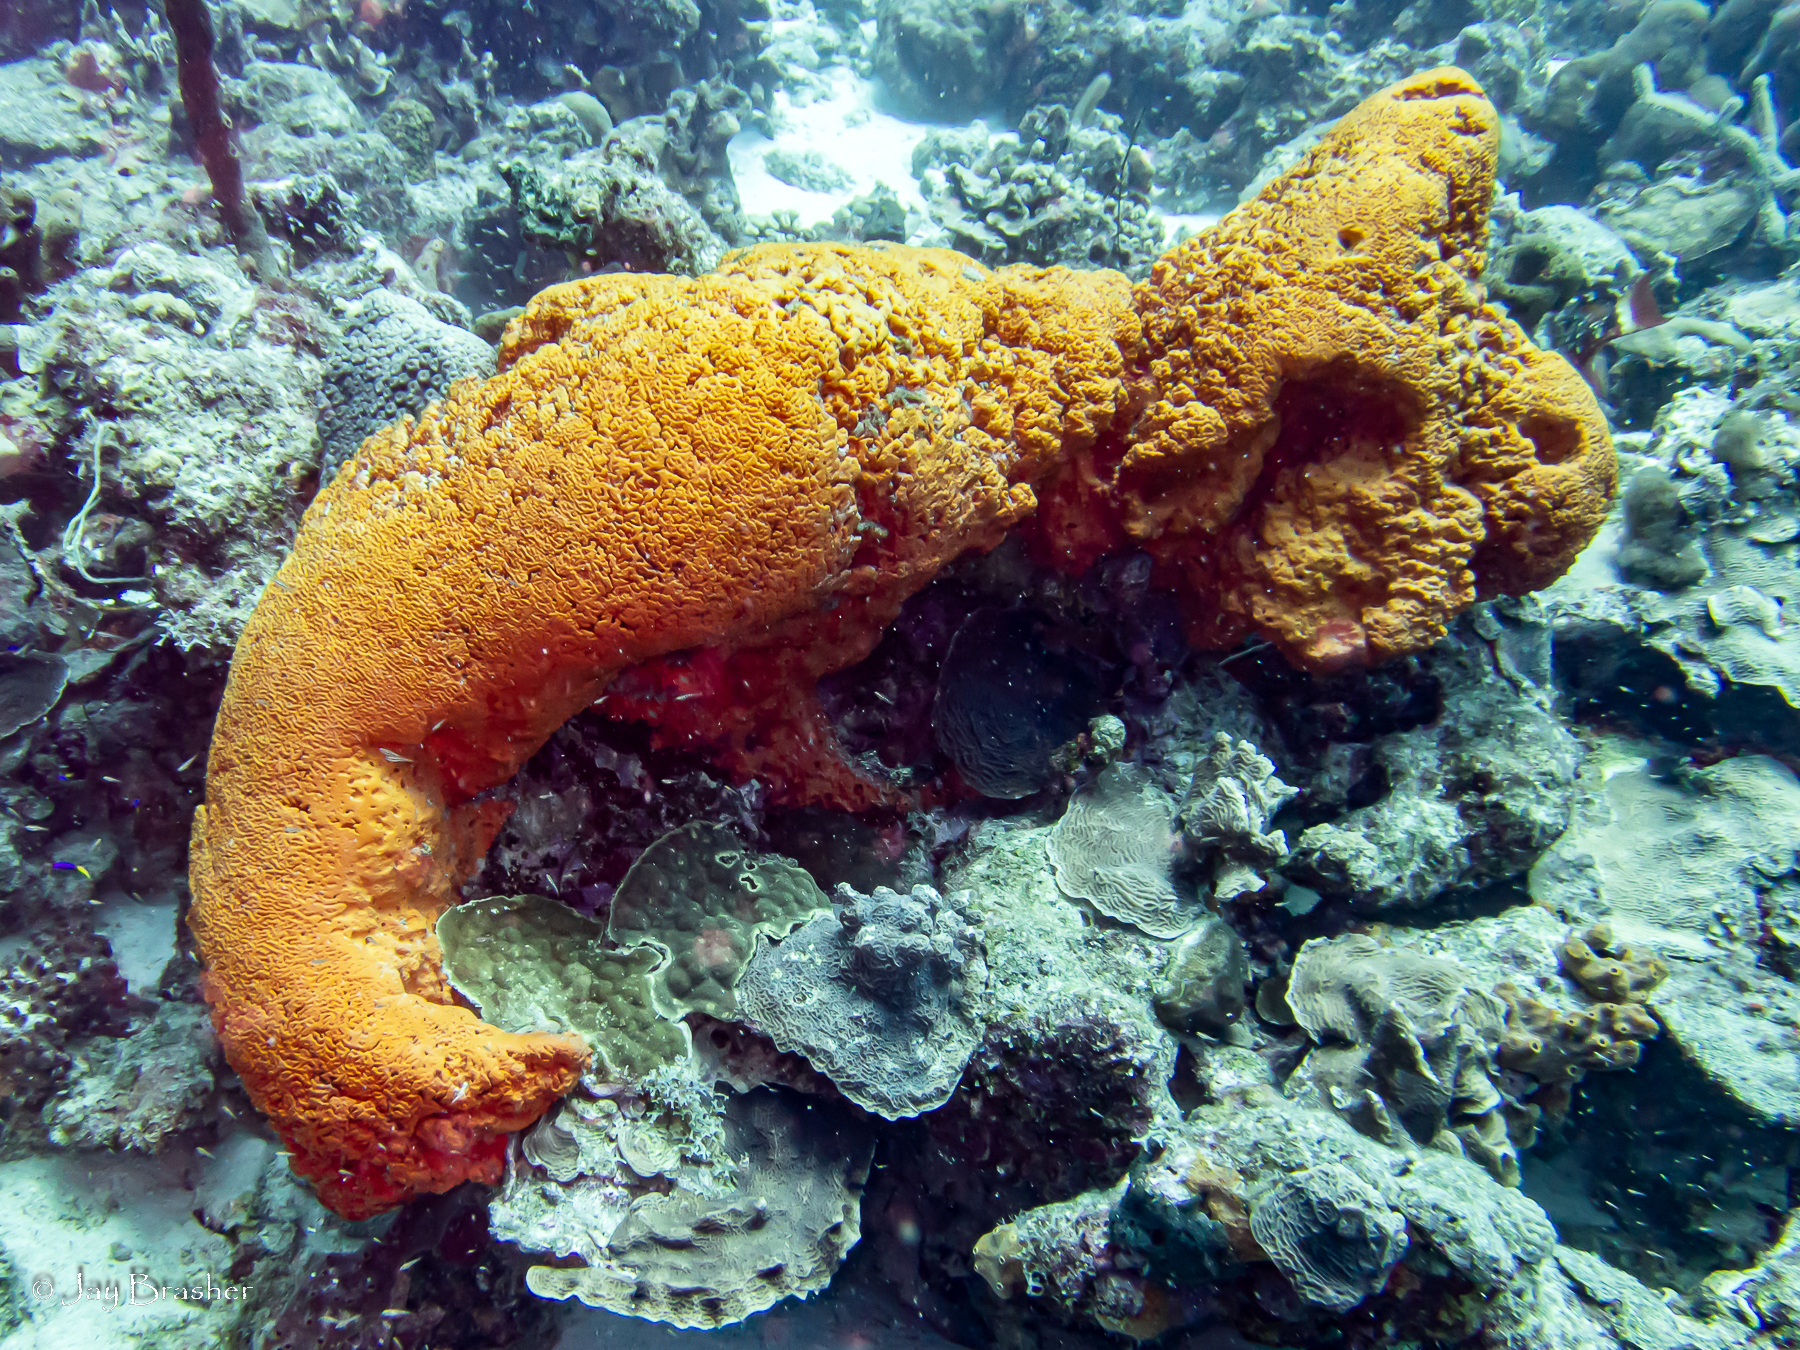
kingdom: Animalia
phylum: Porifera
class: Demospongiae
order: Agelasida
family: Agelasidae
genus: Agelas
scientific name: Agelas citrina
